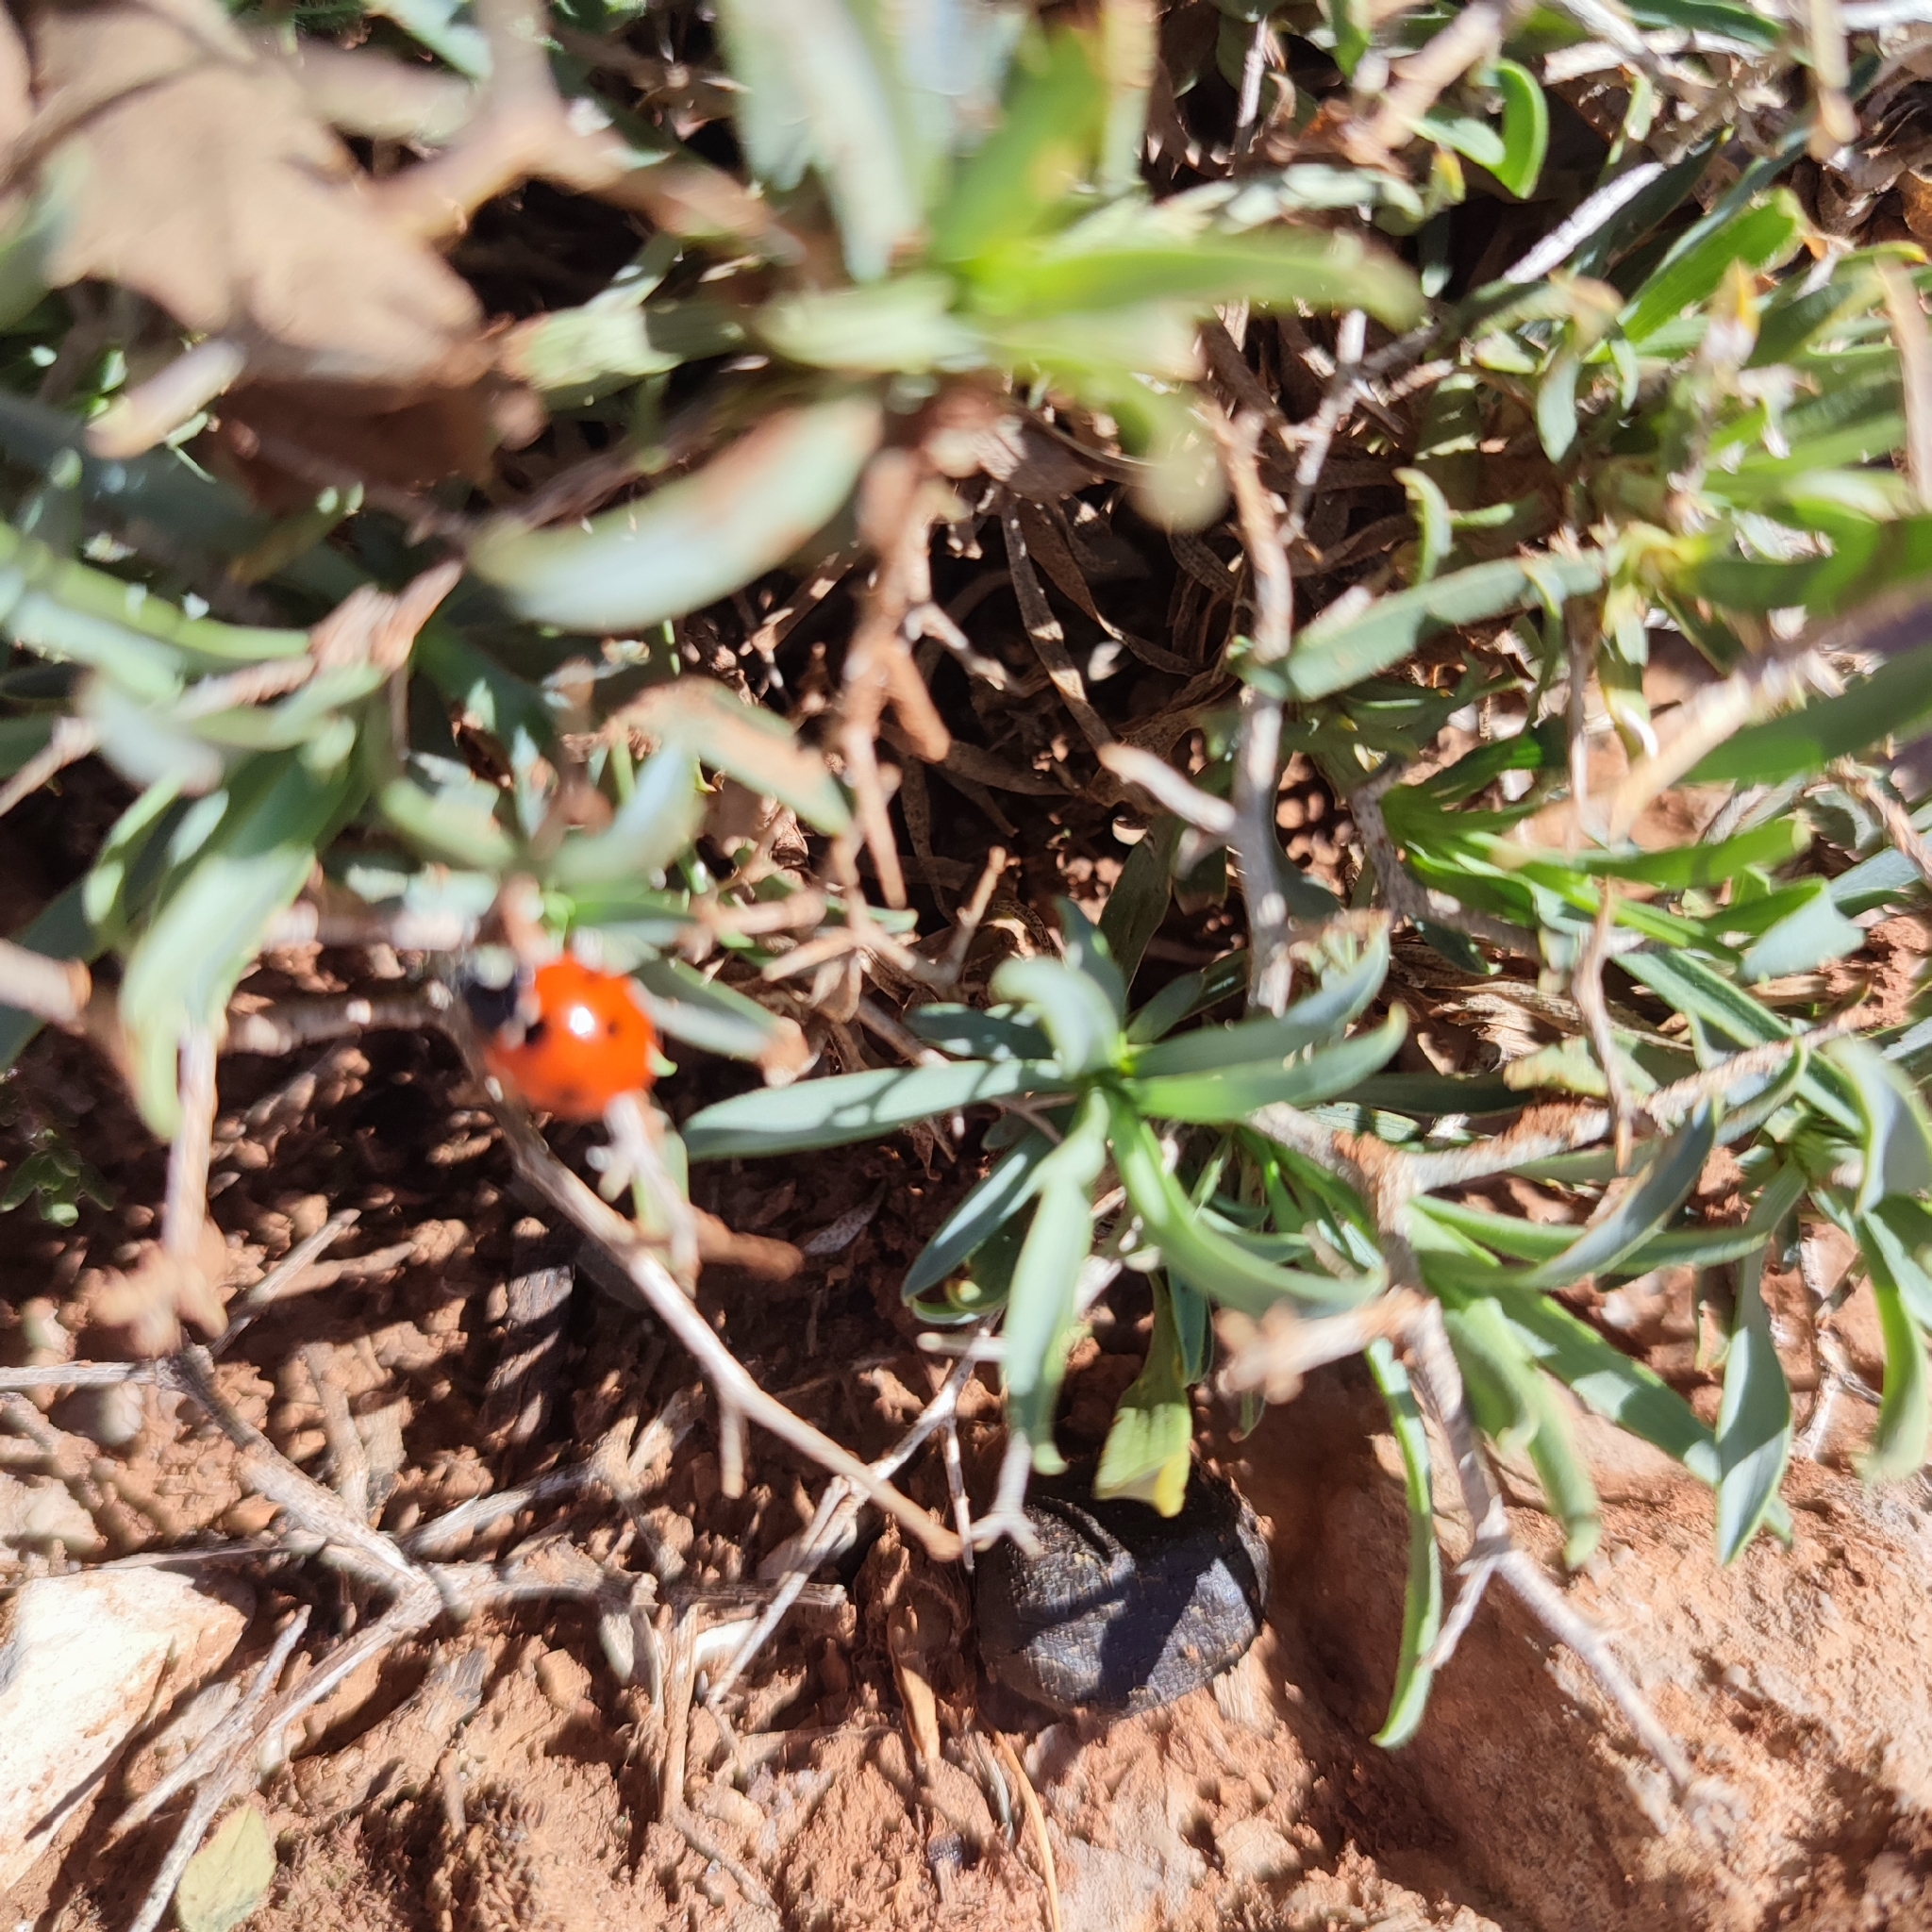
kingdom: Animalia
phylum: Arthropoda
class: Insecta
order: Coleoptera
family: Coccinellidae
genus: Coccinella
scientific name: Coccinella algerica
